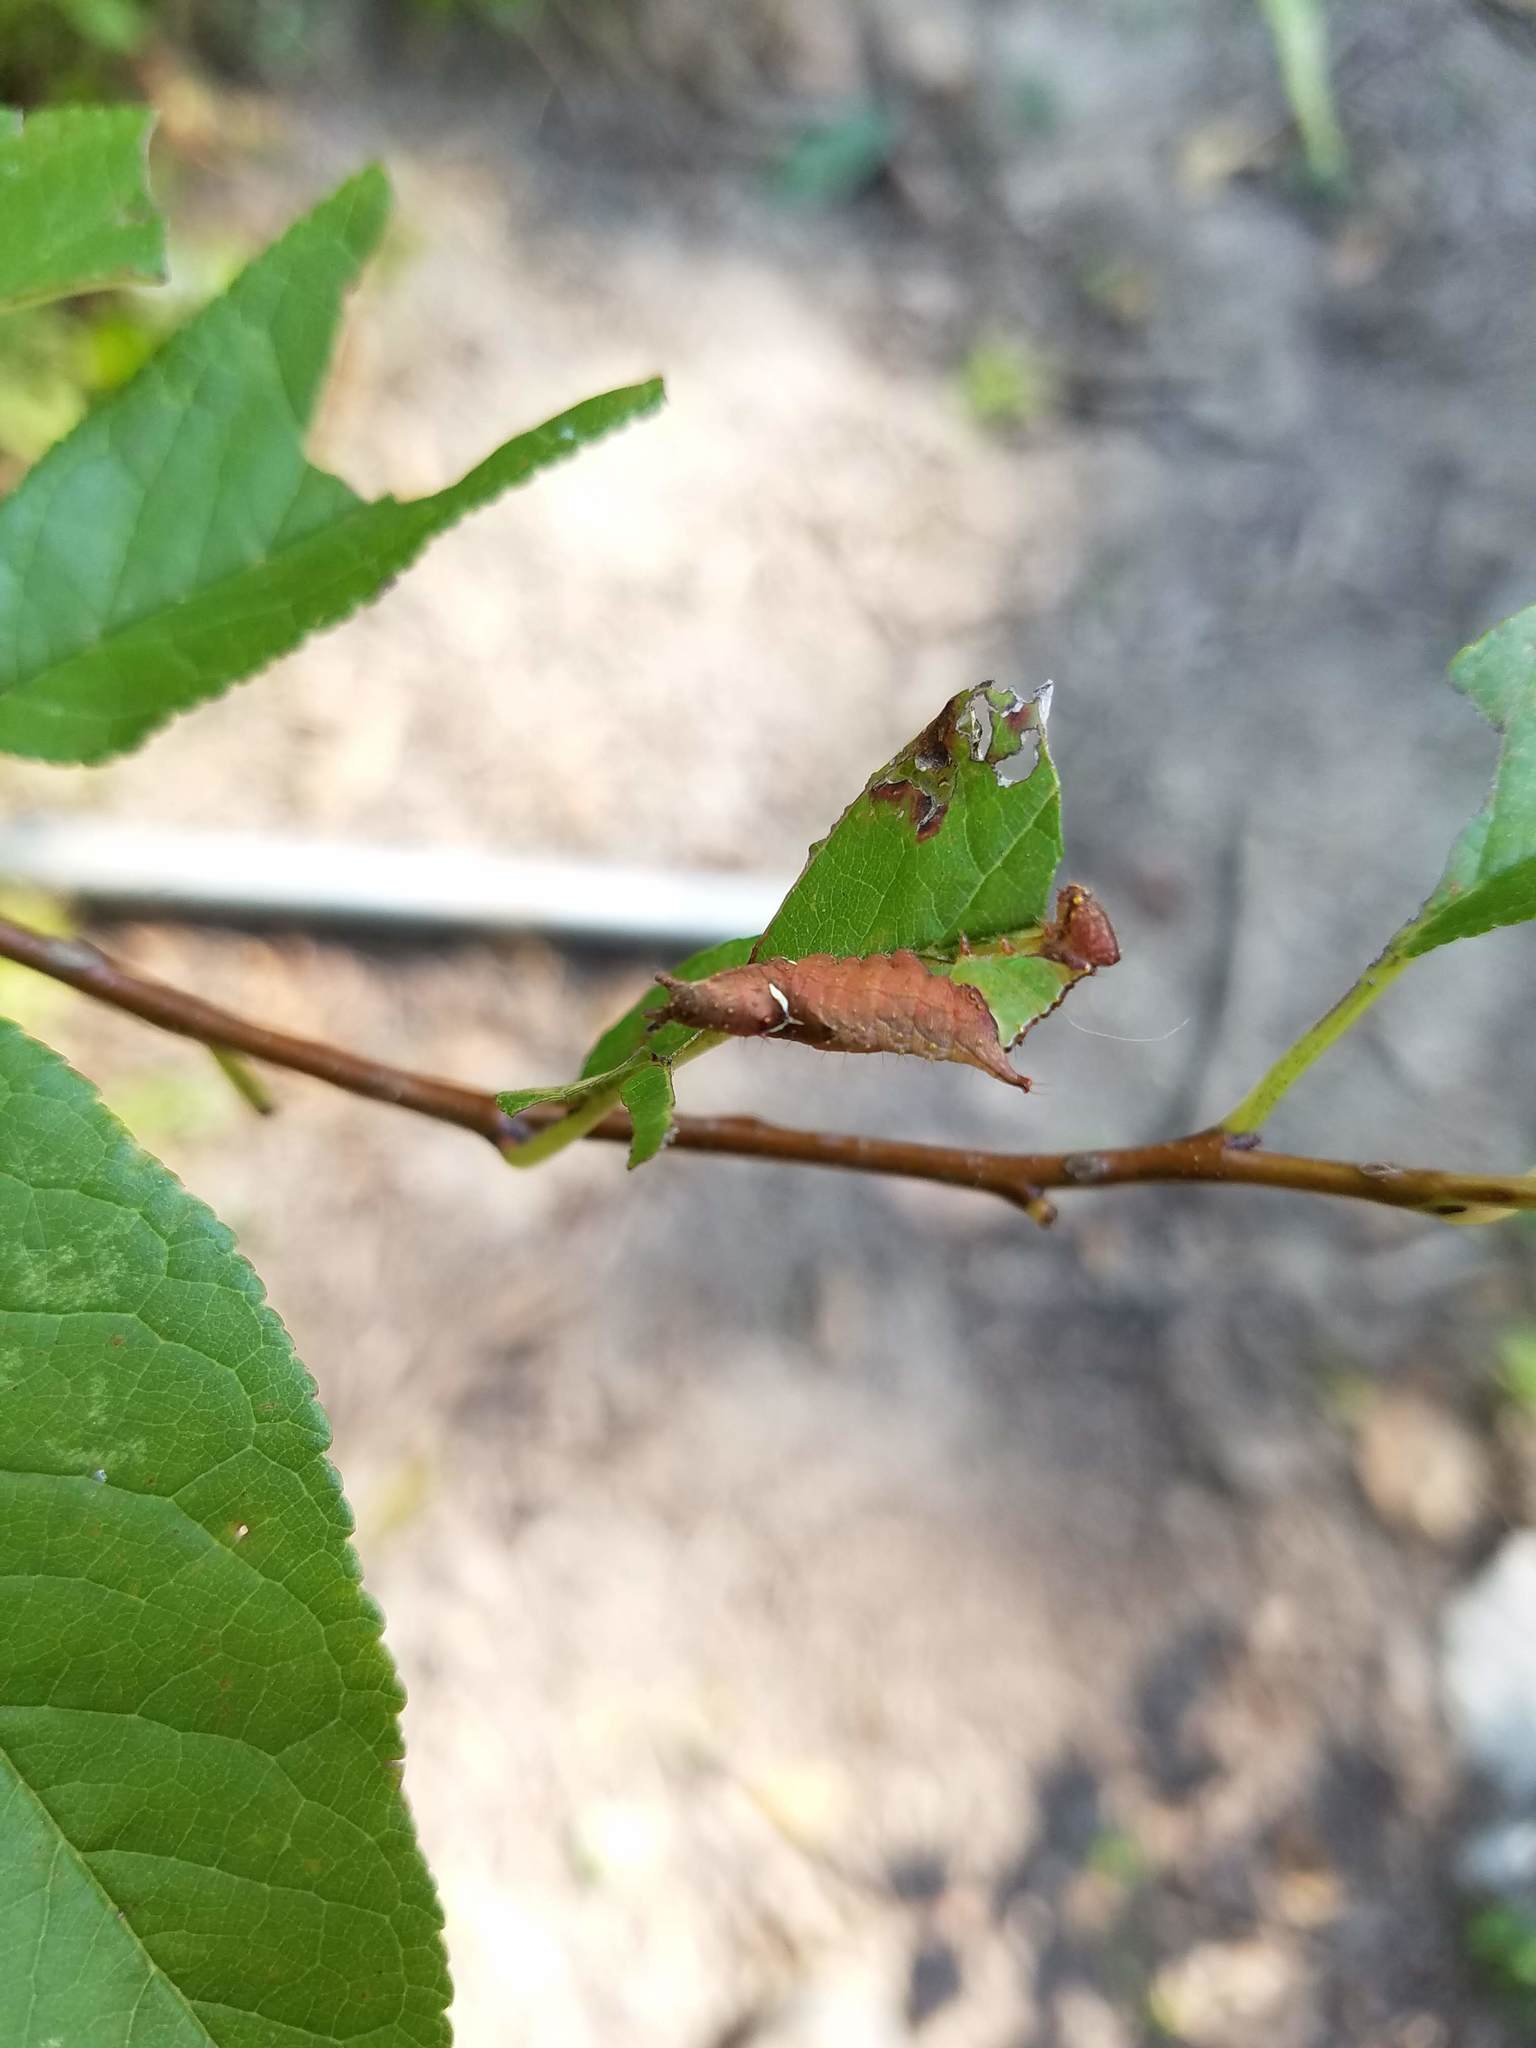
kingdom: Animalia
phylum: Arthropoda
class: Insecta
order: Lepidoptera
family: Notodontidae
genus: Schizura
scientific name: Schizura
